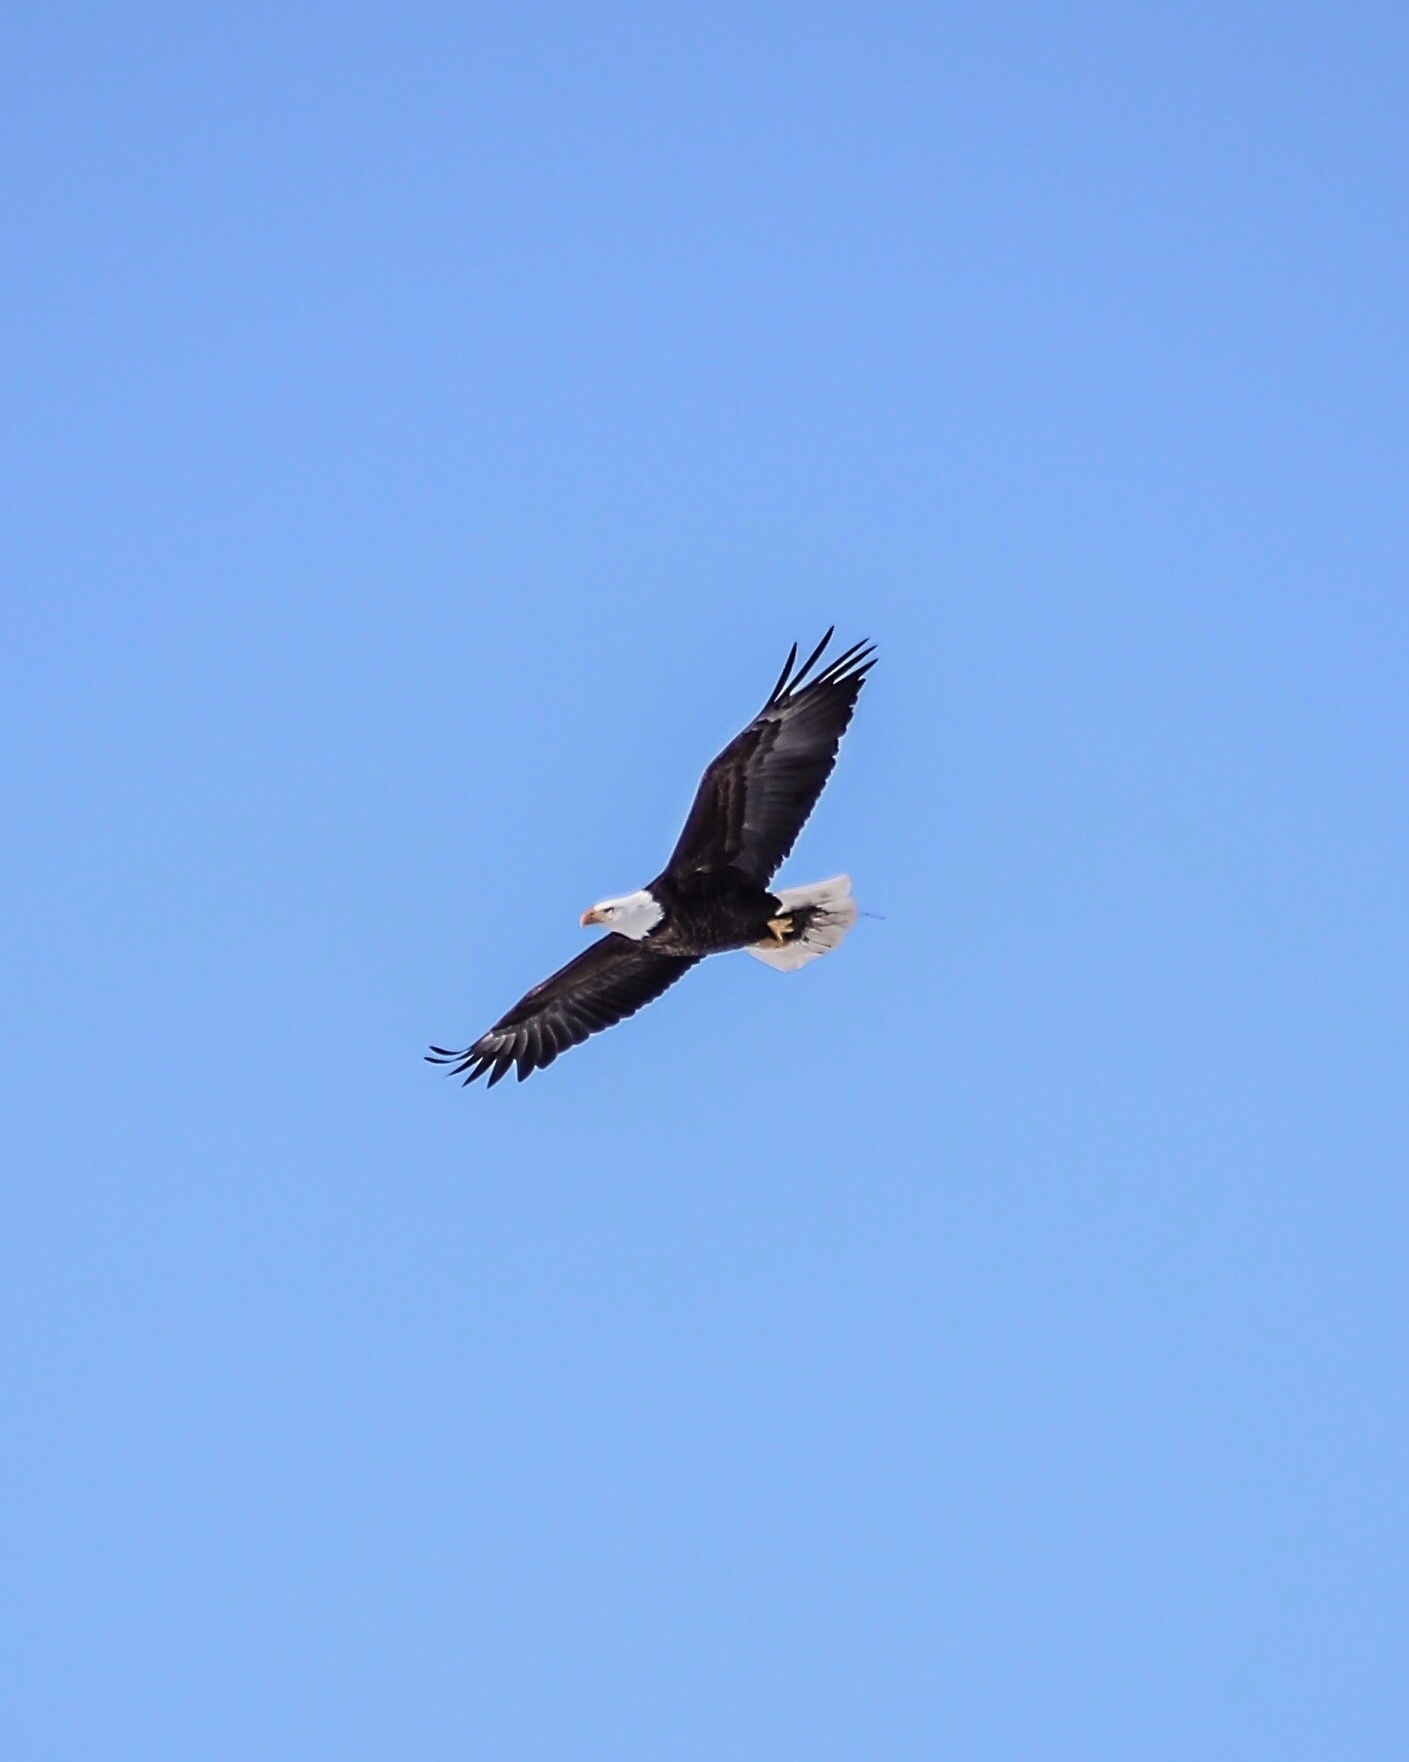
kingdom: Animalia
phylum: Chordata
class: Aves
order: Accipitriformes
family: Accipitridae
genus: Haliaeetus
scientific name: Haliaeetus leucocephalus
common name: Bald eagle
